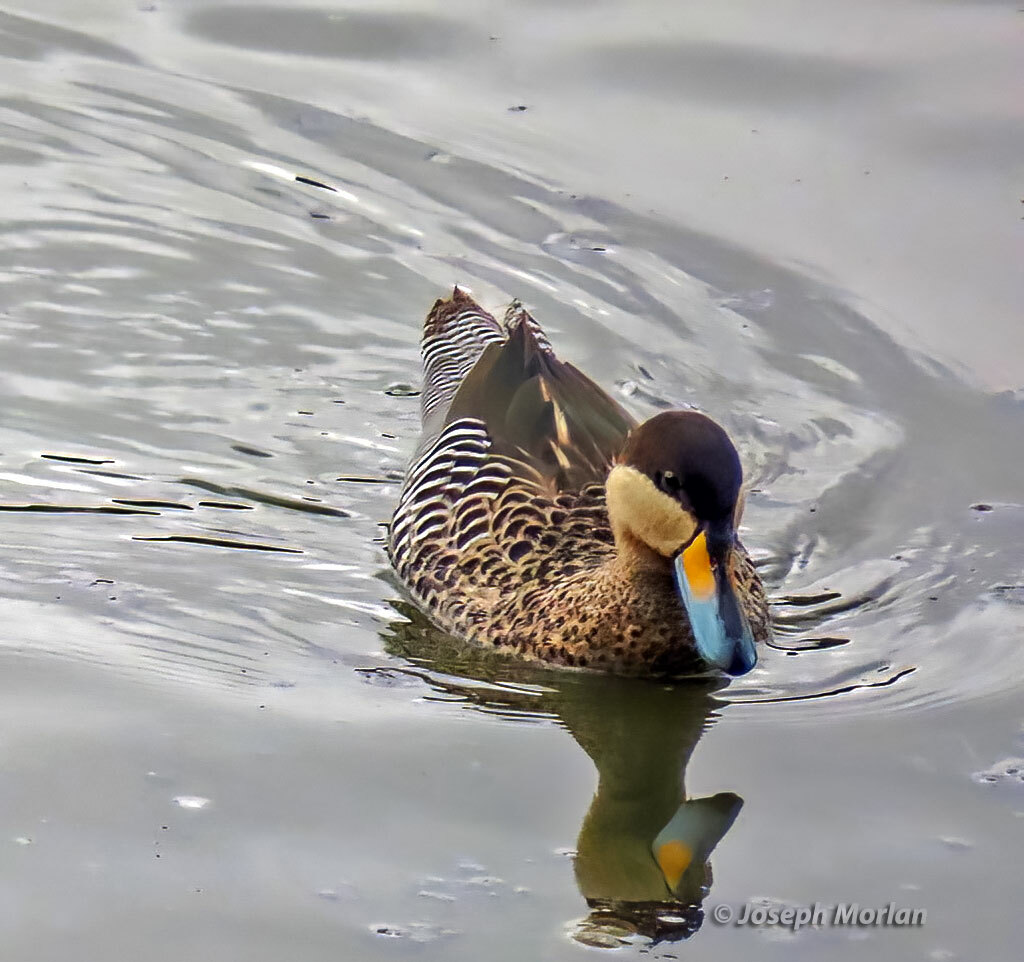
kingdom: Animalia
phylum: Chordata
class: Aves
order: Anseriformes
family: Anatidae
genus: Spatula
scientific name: Spatula versicolor
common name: Silver teal
